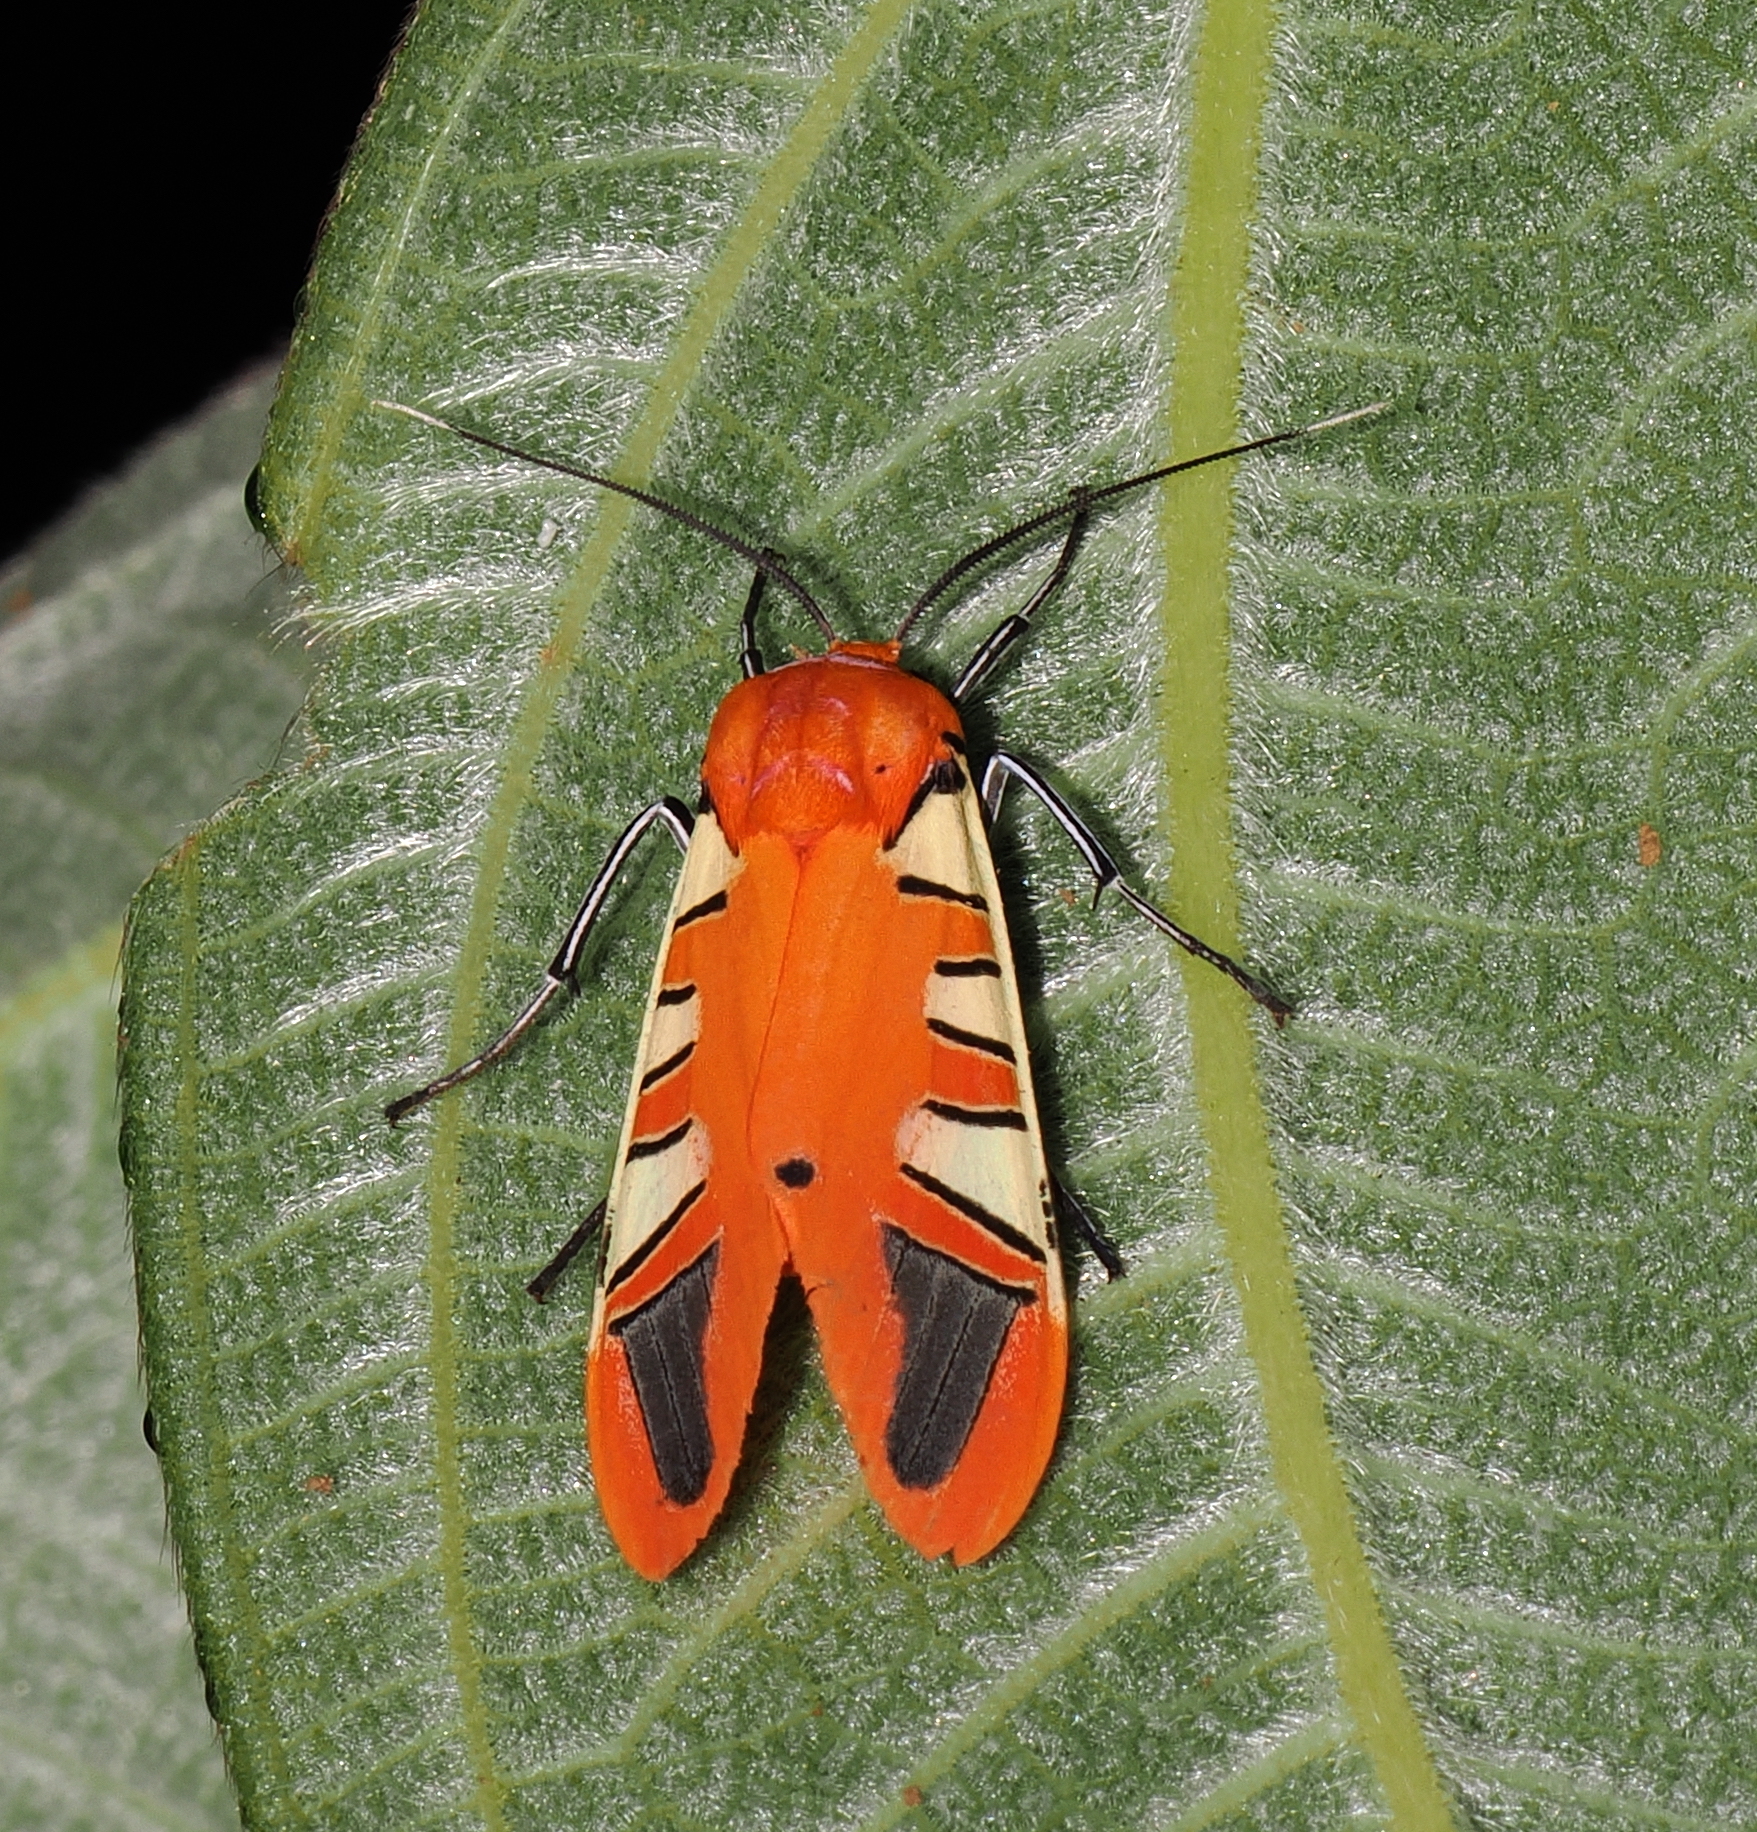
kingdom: Animalia
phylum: Arthropoda
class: Insecta
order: Lepidoptera
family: Erebidae
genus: Gorgonidia
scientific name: Gorgonidia whitfordi
